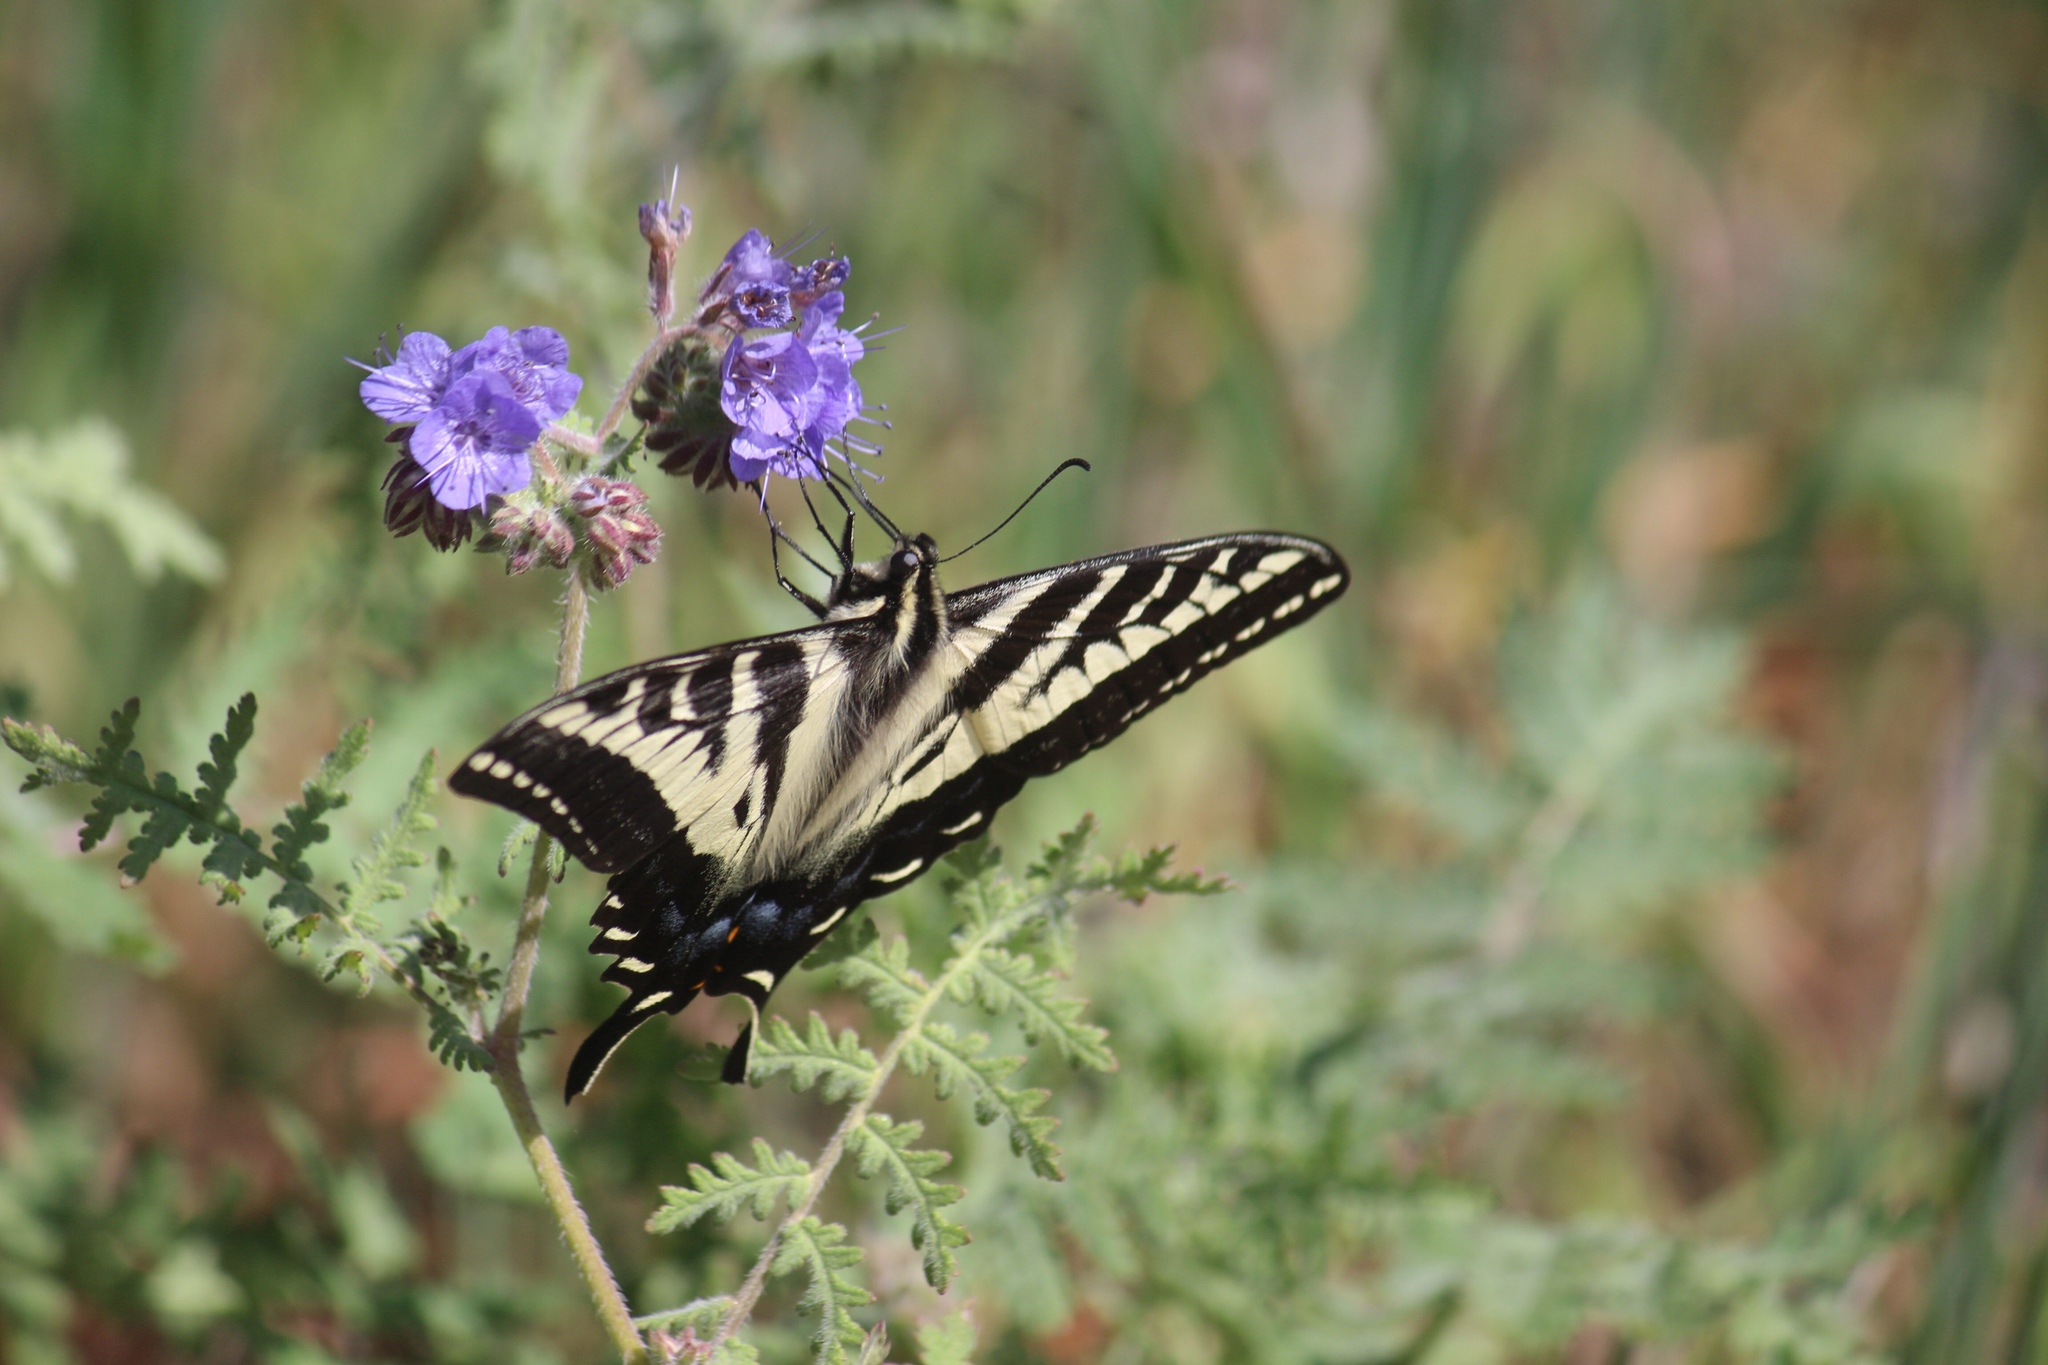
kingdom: Animalia
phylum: Arthropoda
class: Insecta
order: Lepidoptera
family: Papilionidae
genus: Papilio
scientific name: Papilio eurymedon
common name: Pale tiger swallowtail
